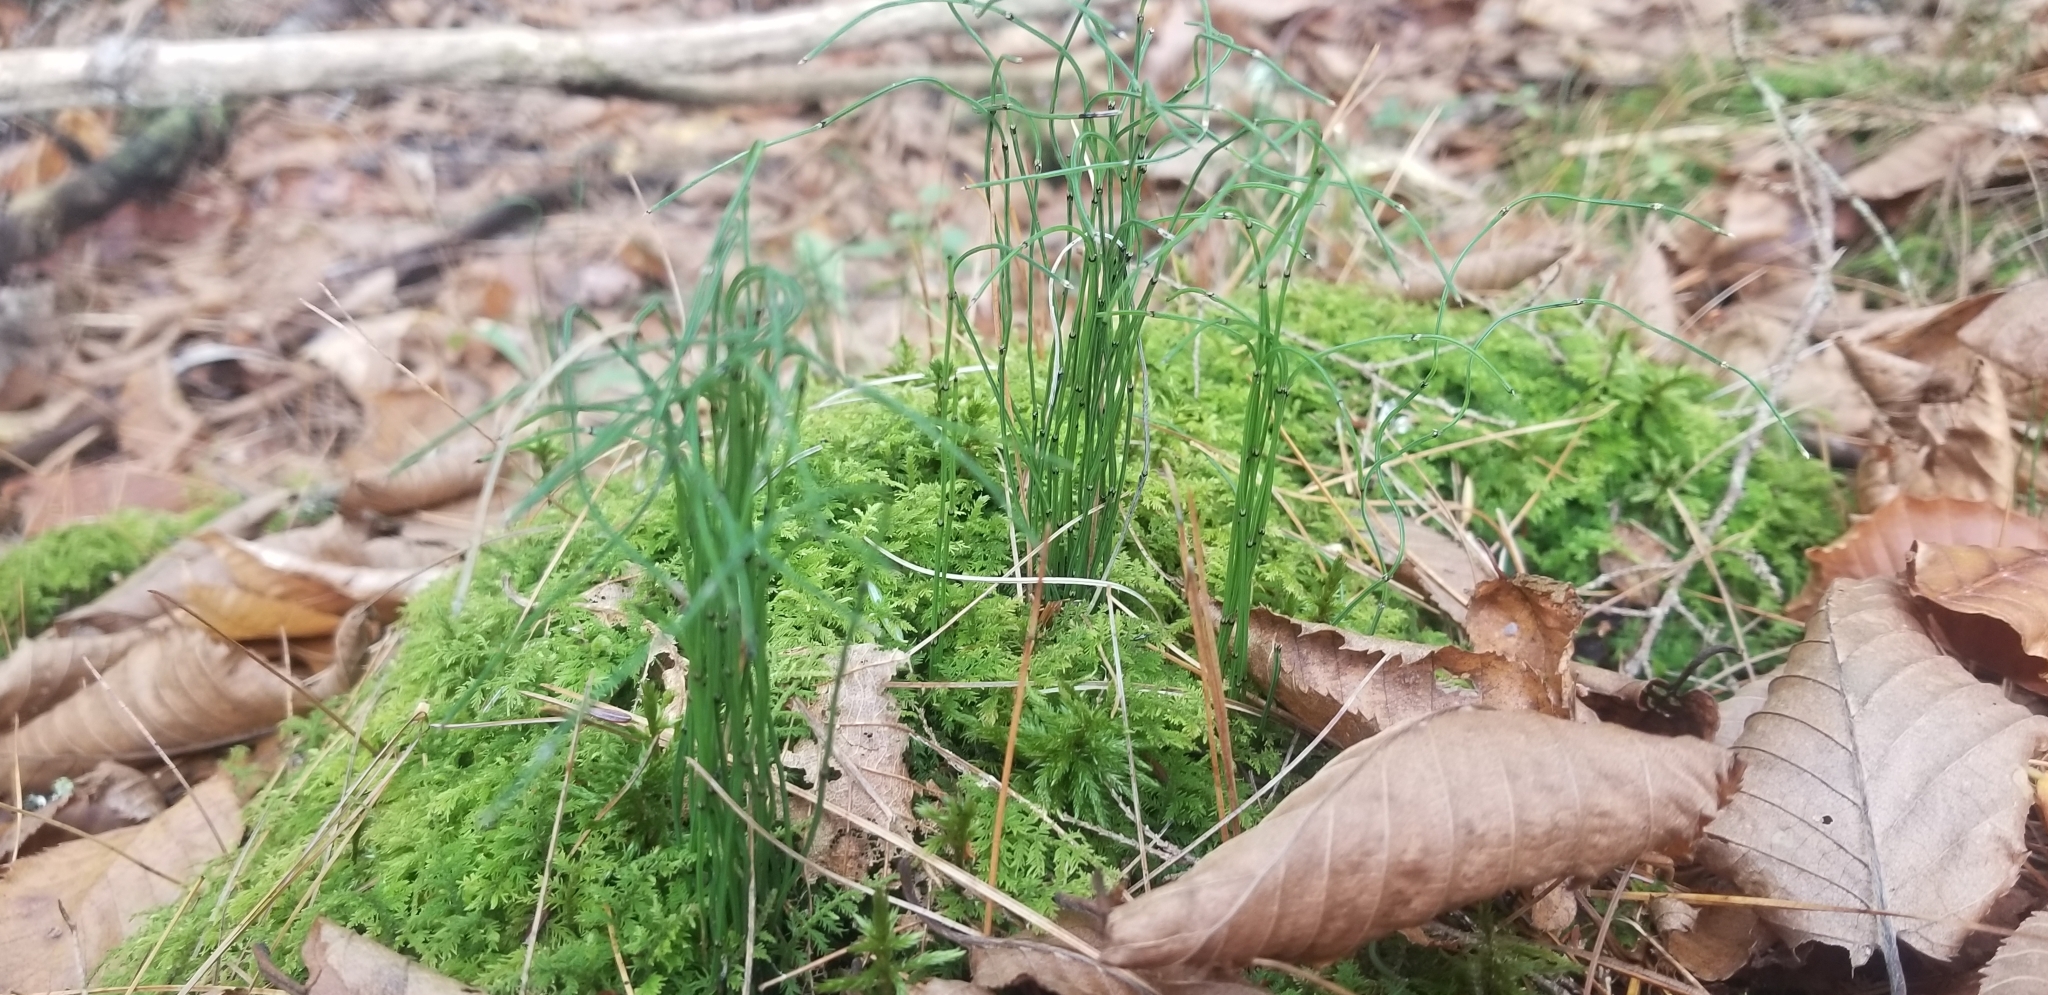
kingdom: Plantae
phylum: Tracheophyta
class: Polypodiopsida
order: Equisetales
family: Equisetaceae
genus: Equisetum
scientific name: Equisetum scirpoides
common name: Delicate horsetail
